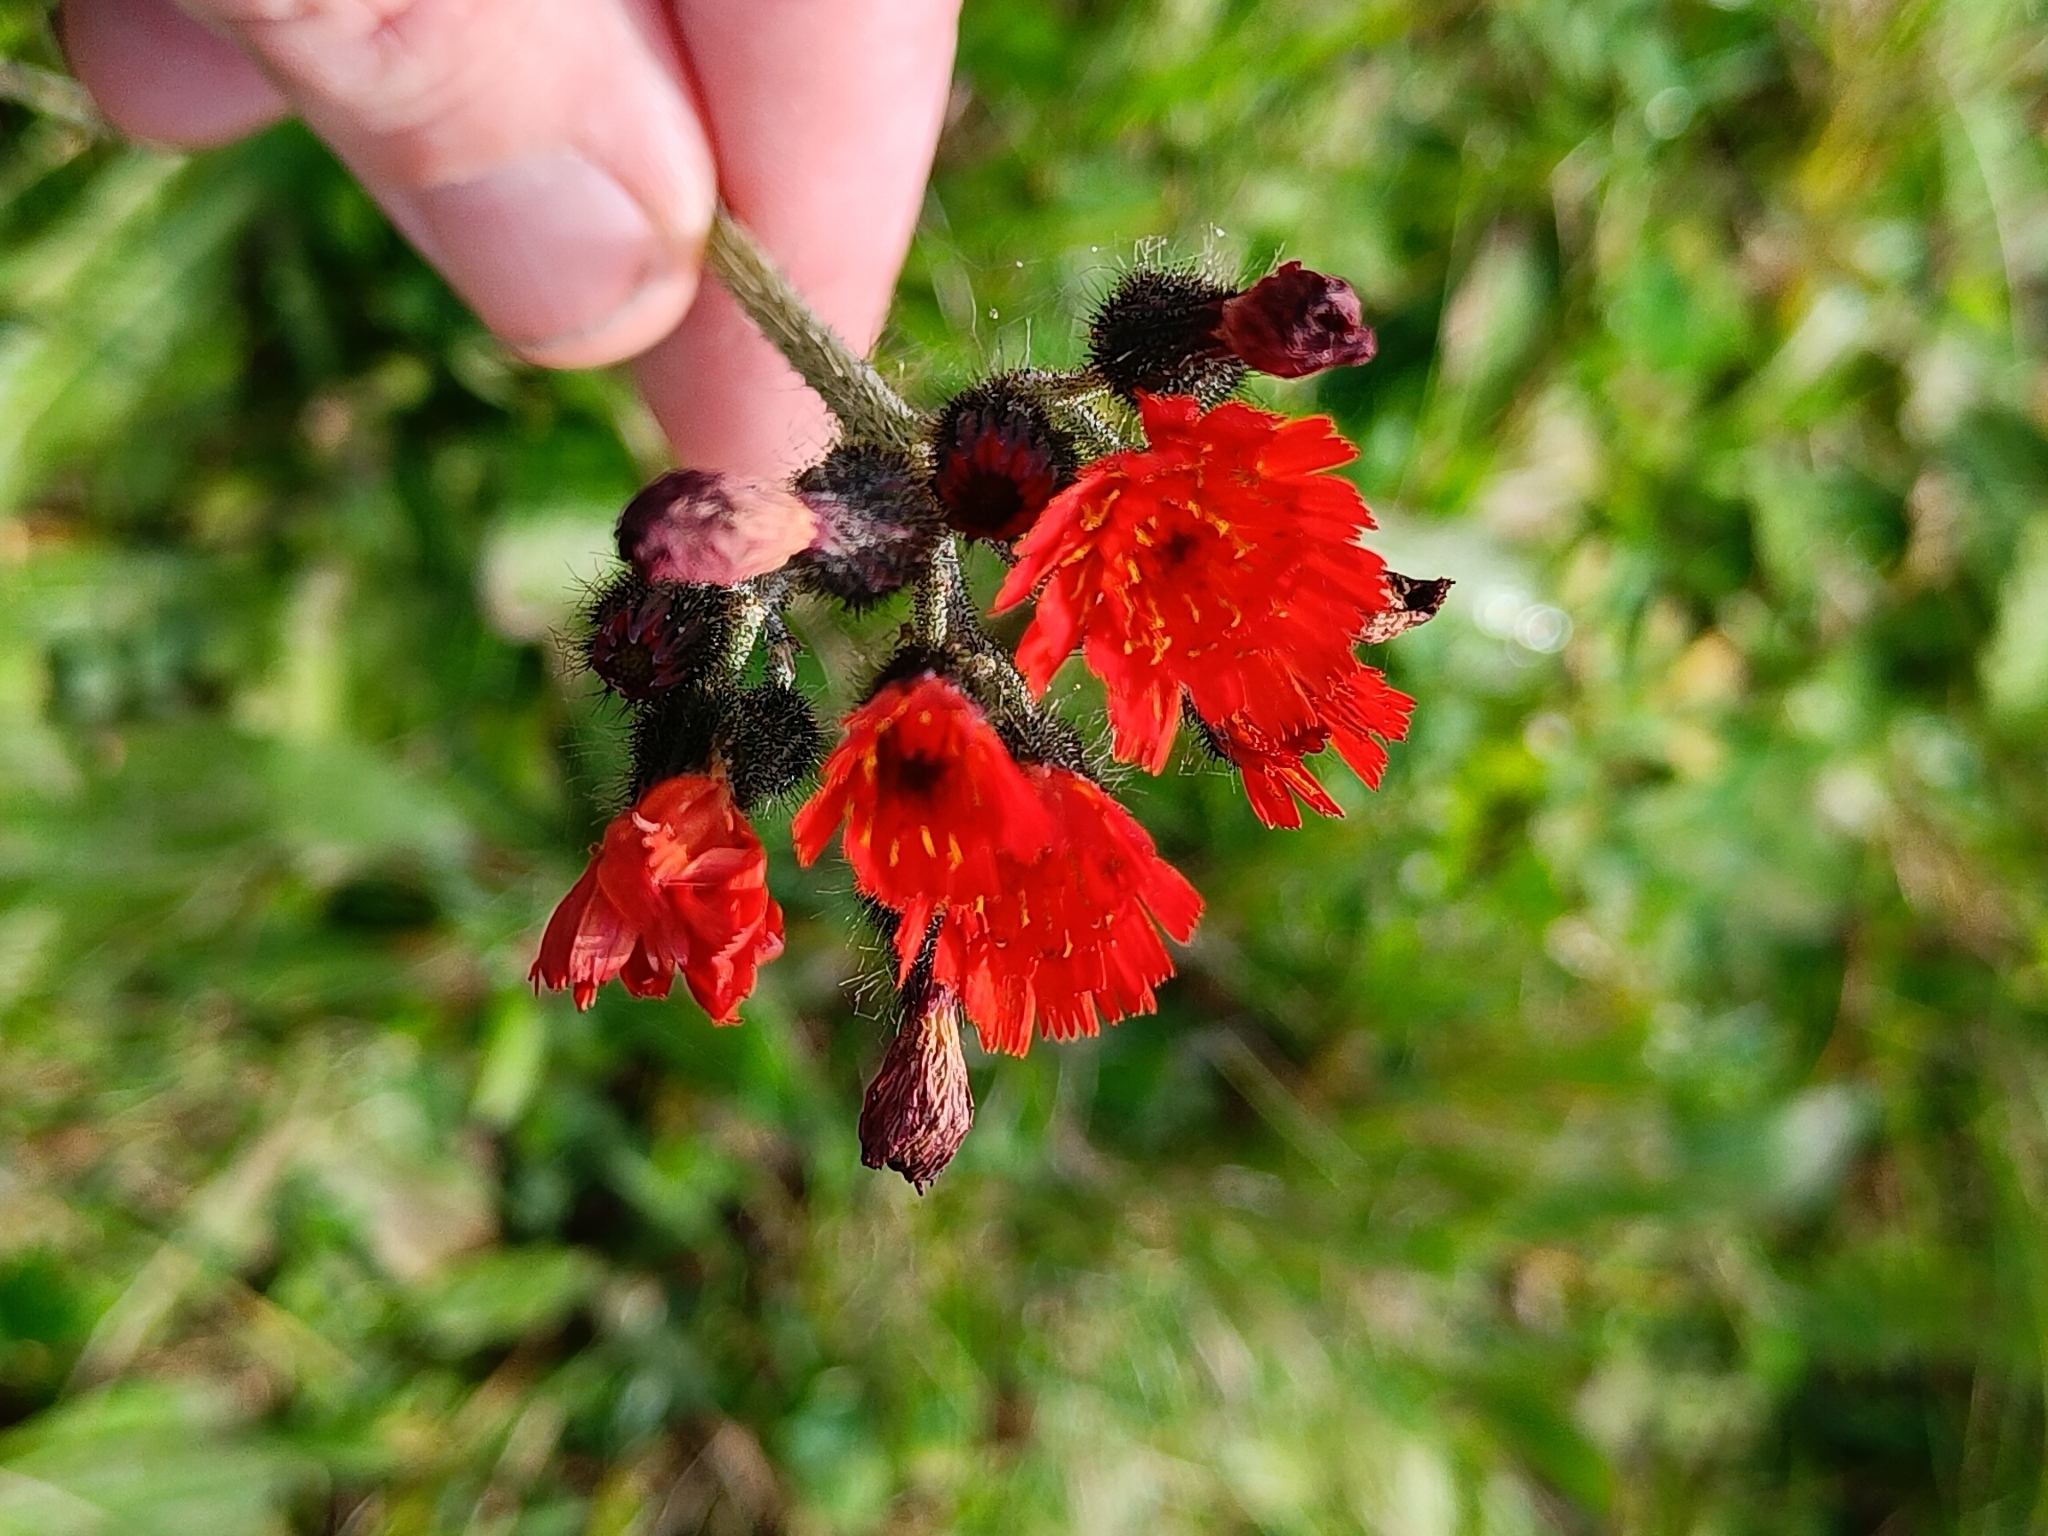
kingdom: Plantae
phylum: Tracheophyta
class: Magnoliopsida
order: Asterales
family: Asteraceae
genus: Pilosella
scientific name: Pilosella aurantiaca
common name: Fox-and-cubs
